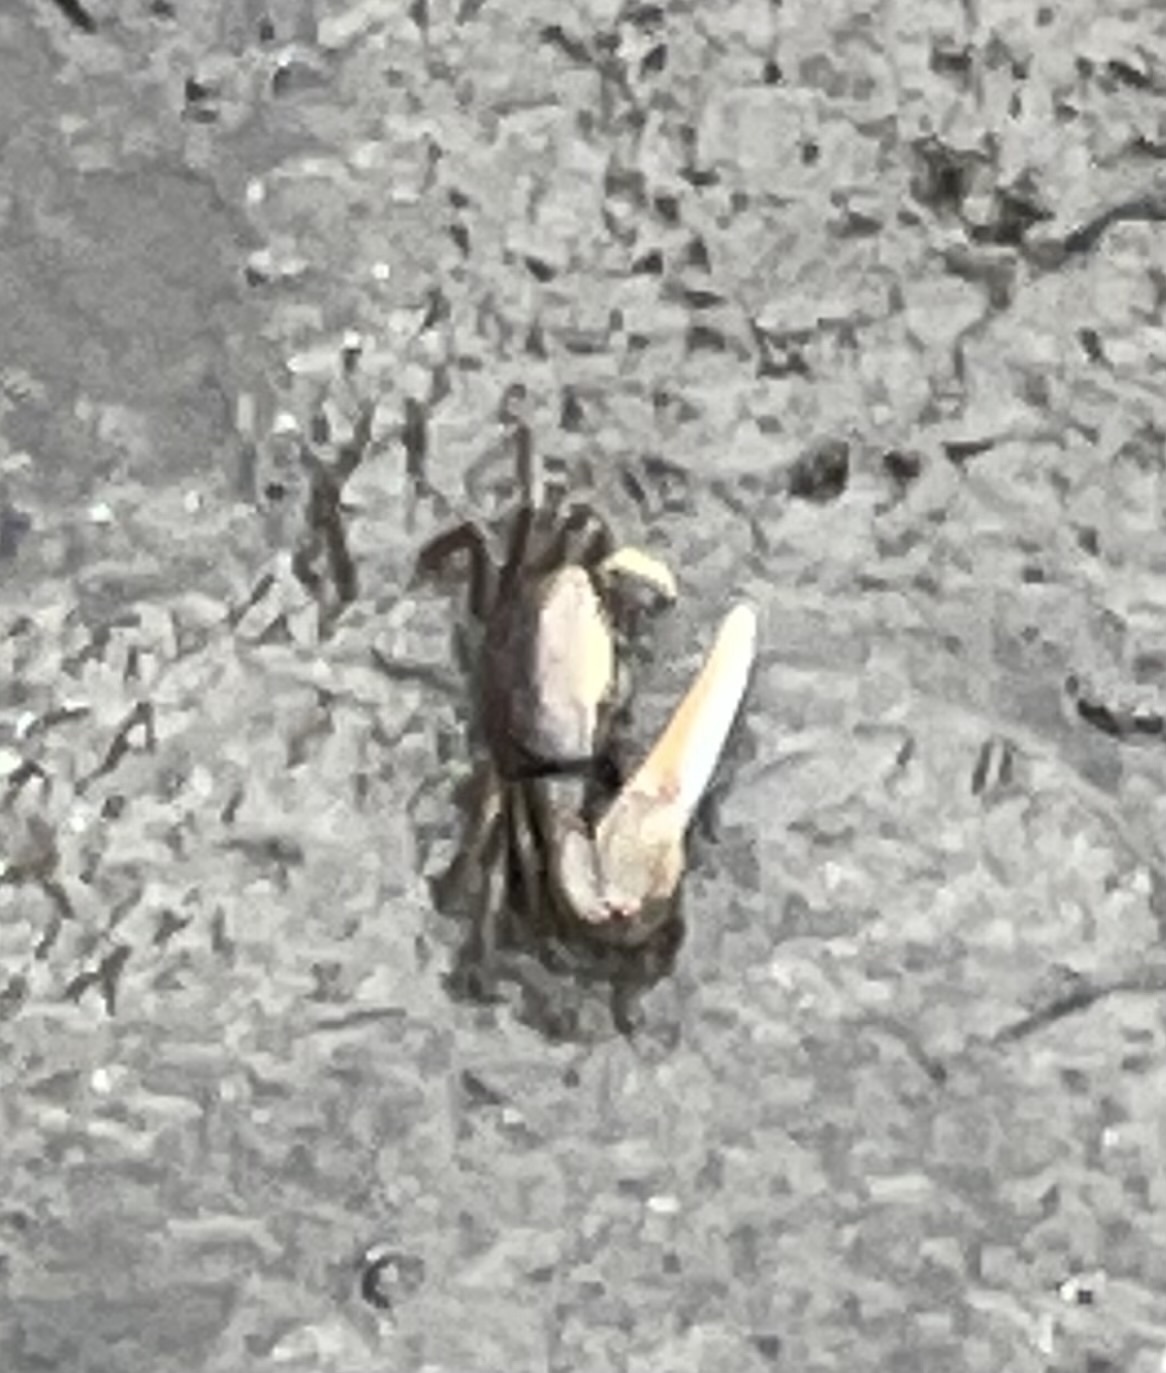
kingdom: Animalia
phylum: Arthropoda
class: Malacostraca
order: Decapoda
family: Ocypodidae
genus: Minuca
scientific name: Minuca minax
